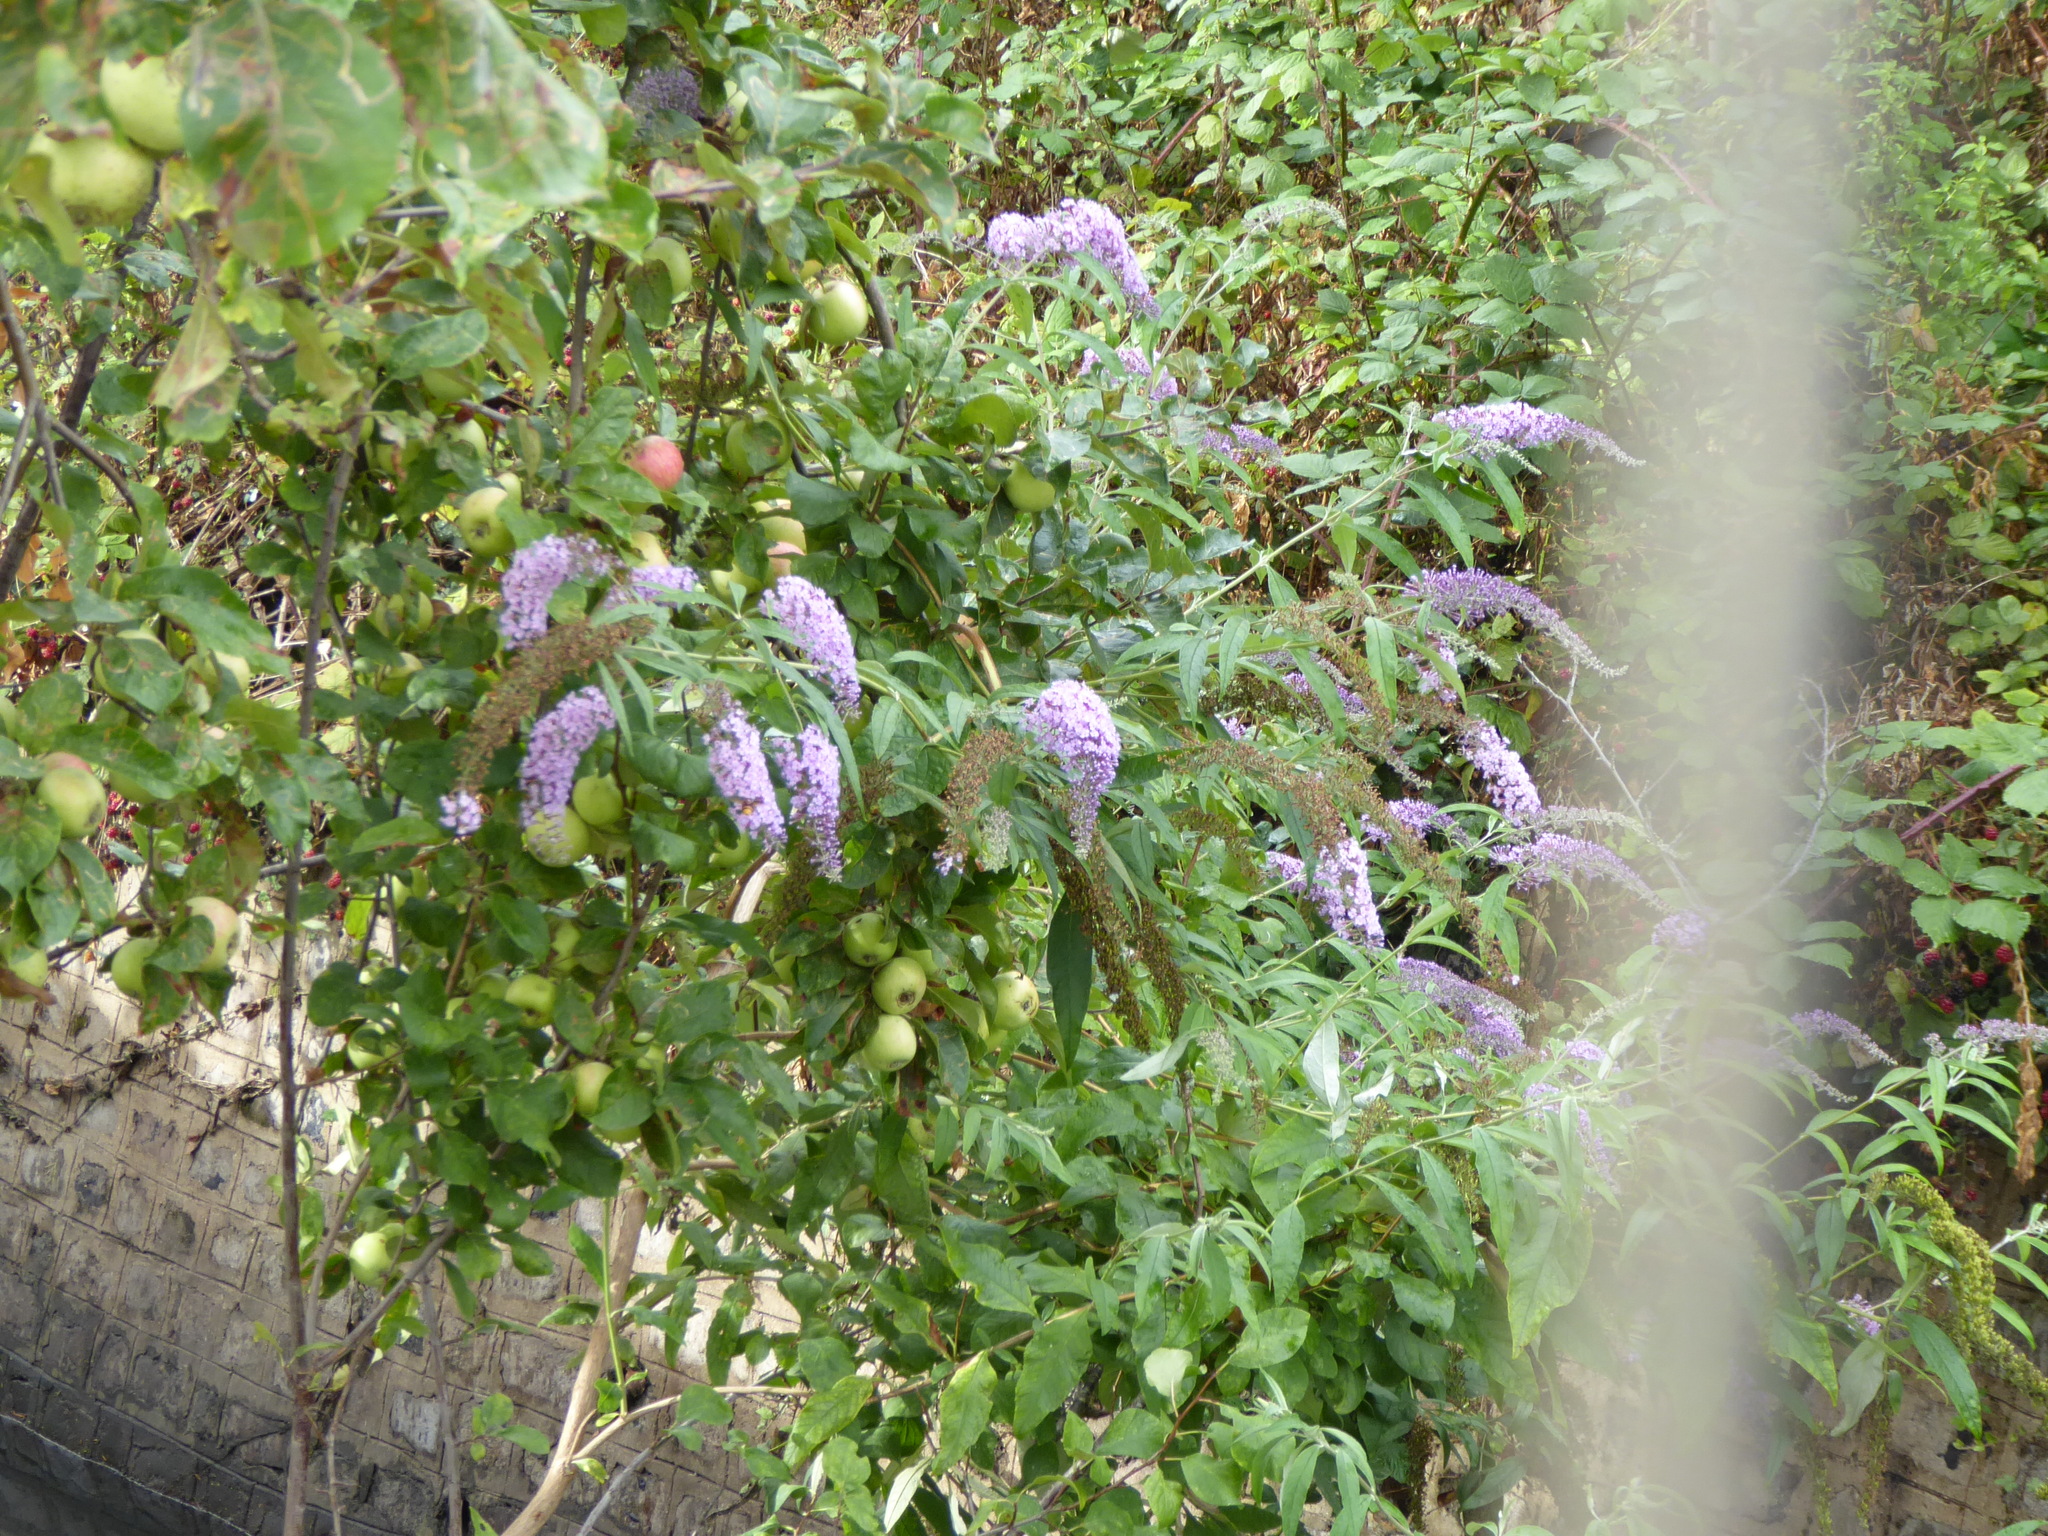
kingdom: Plantae
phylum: Tracheophyta
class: Magnoliopsida
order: Rosales
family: Rosaceae
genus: Malus
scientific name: Malus domestica
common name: Apple
